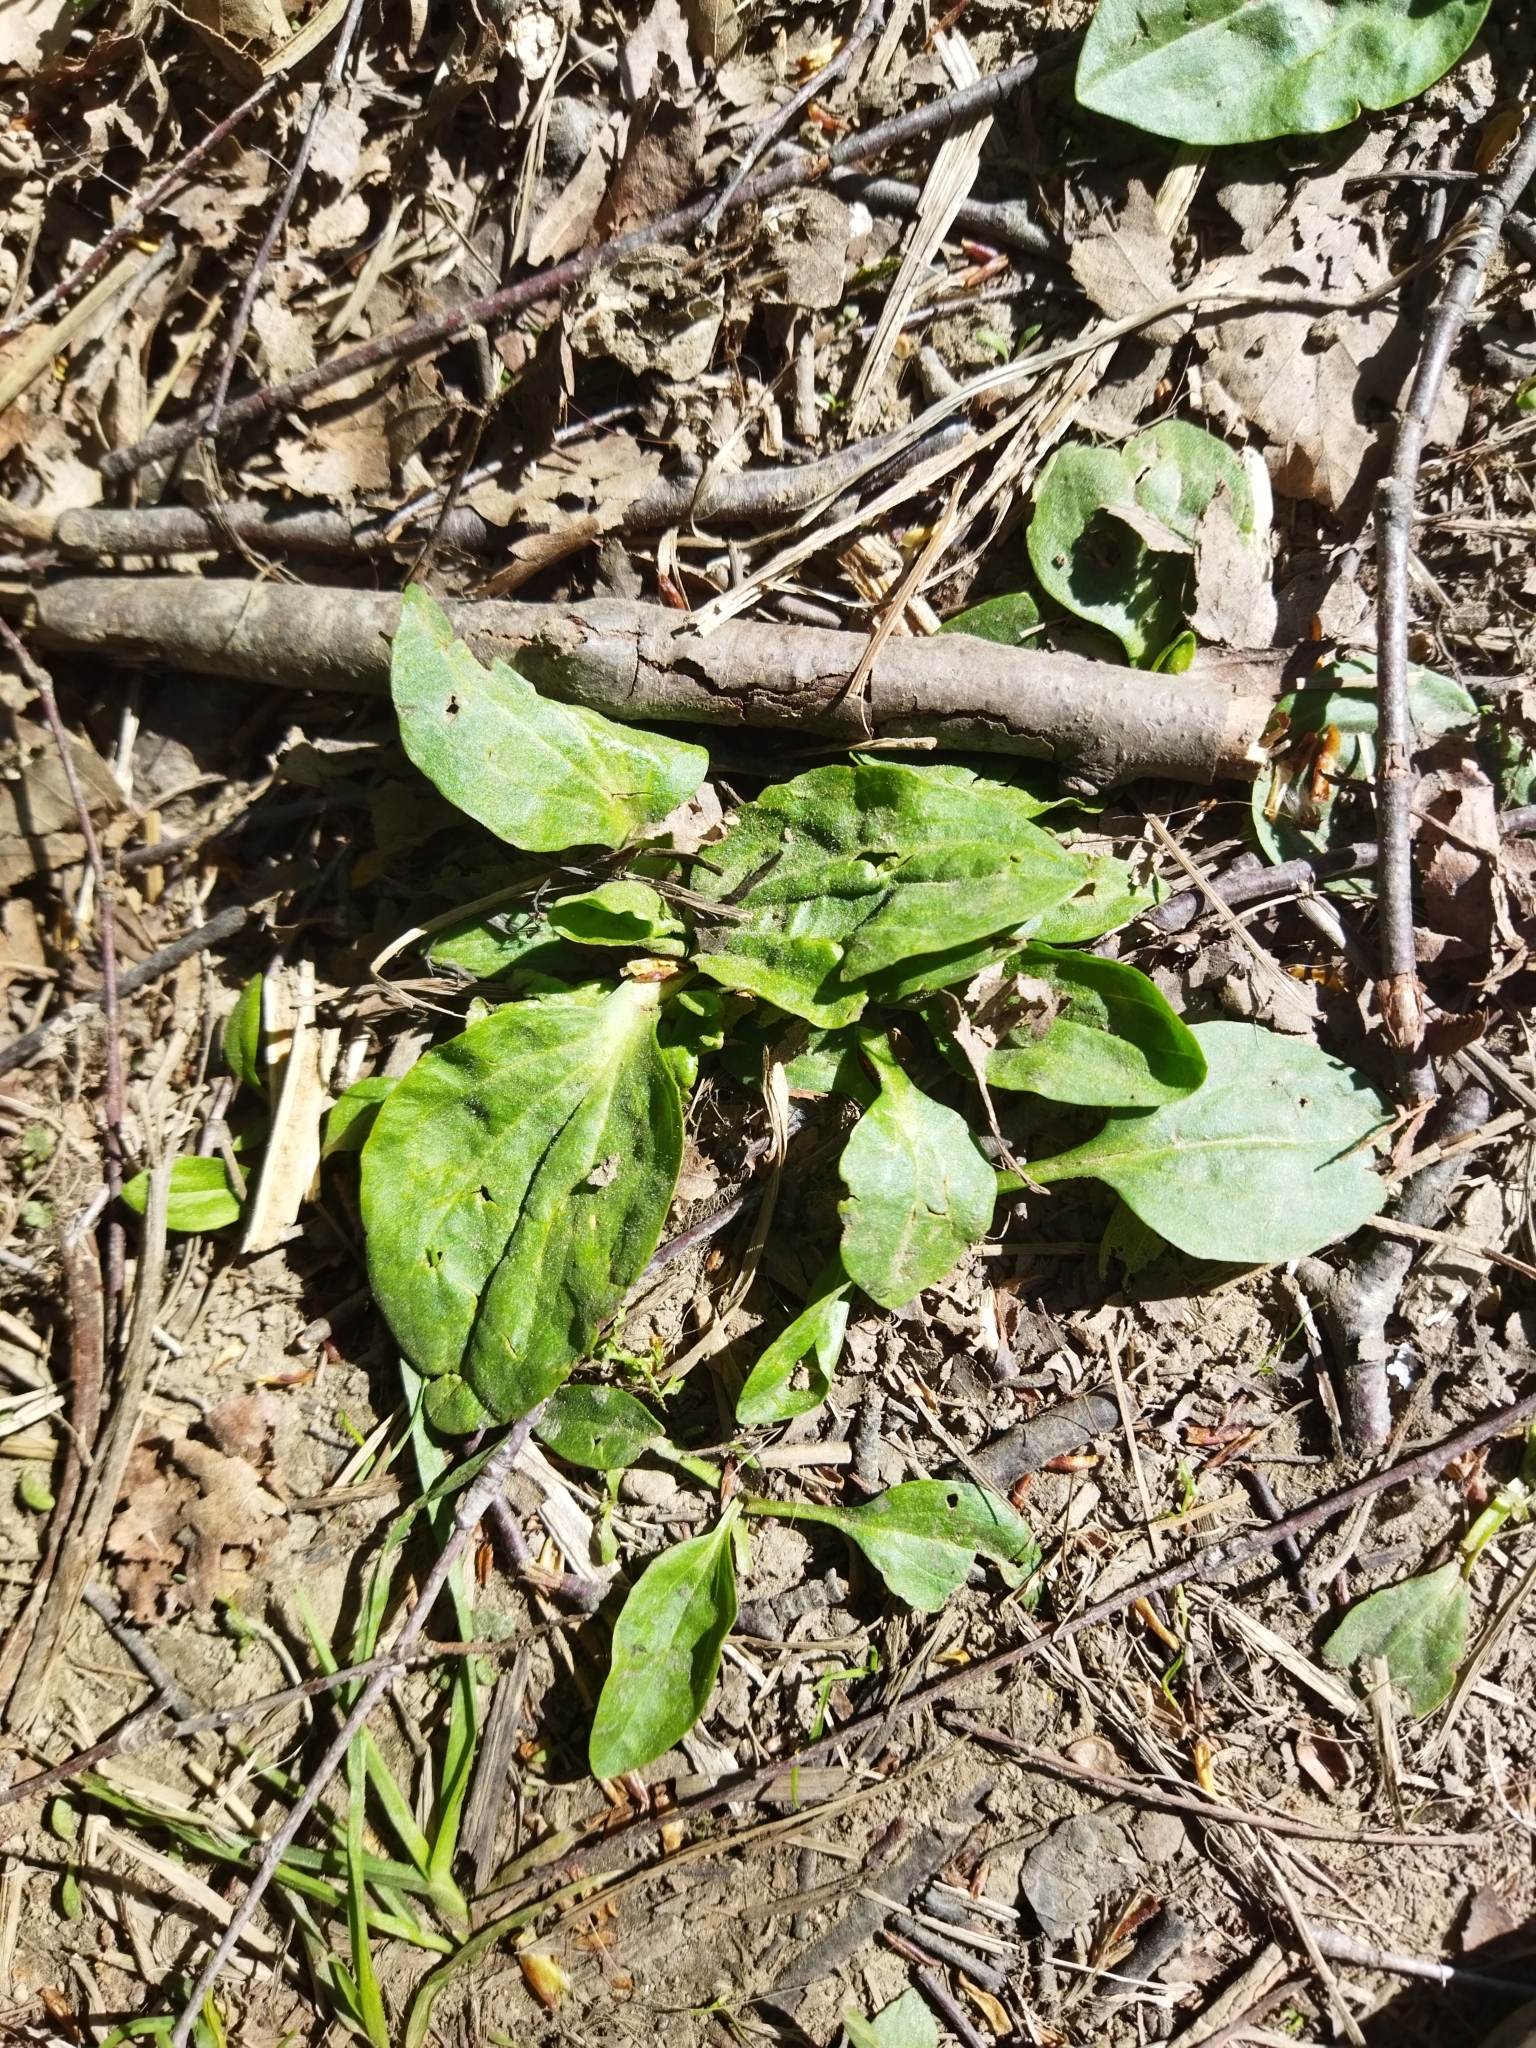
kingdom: Plantae
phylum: Tracheophyta
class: Magnoliopsida
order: Lamiales
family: Plantaginaceae
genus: Plantago
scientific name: Plantago major
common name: Common plantain
